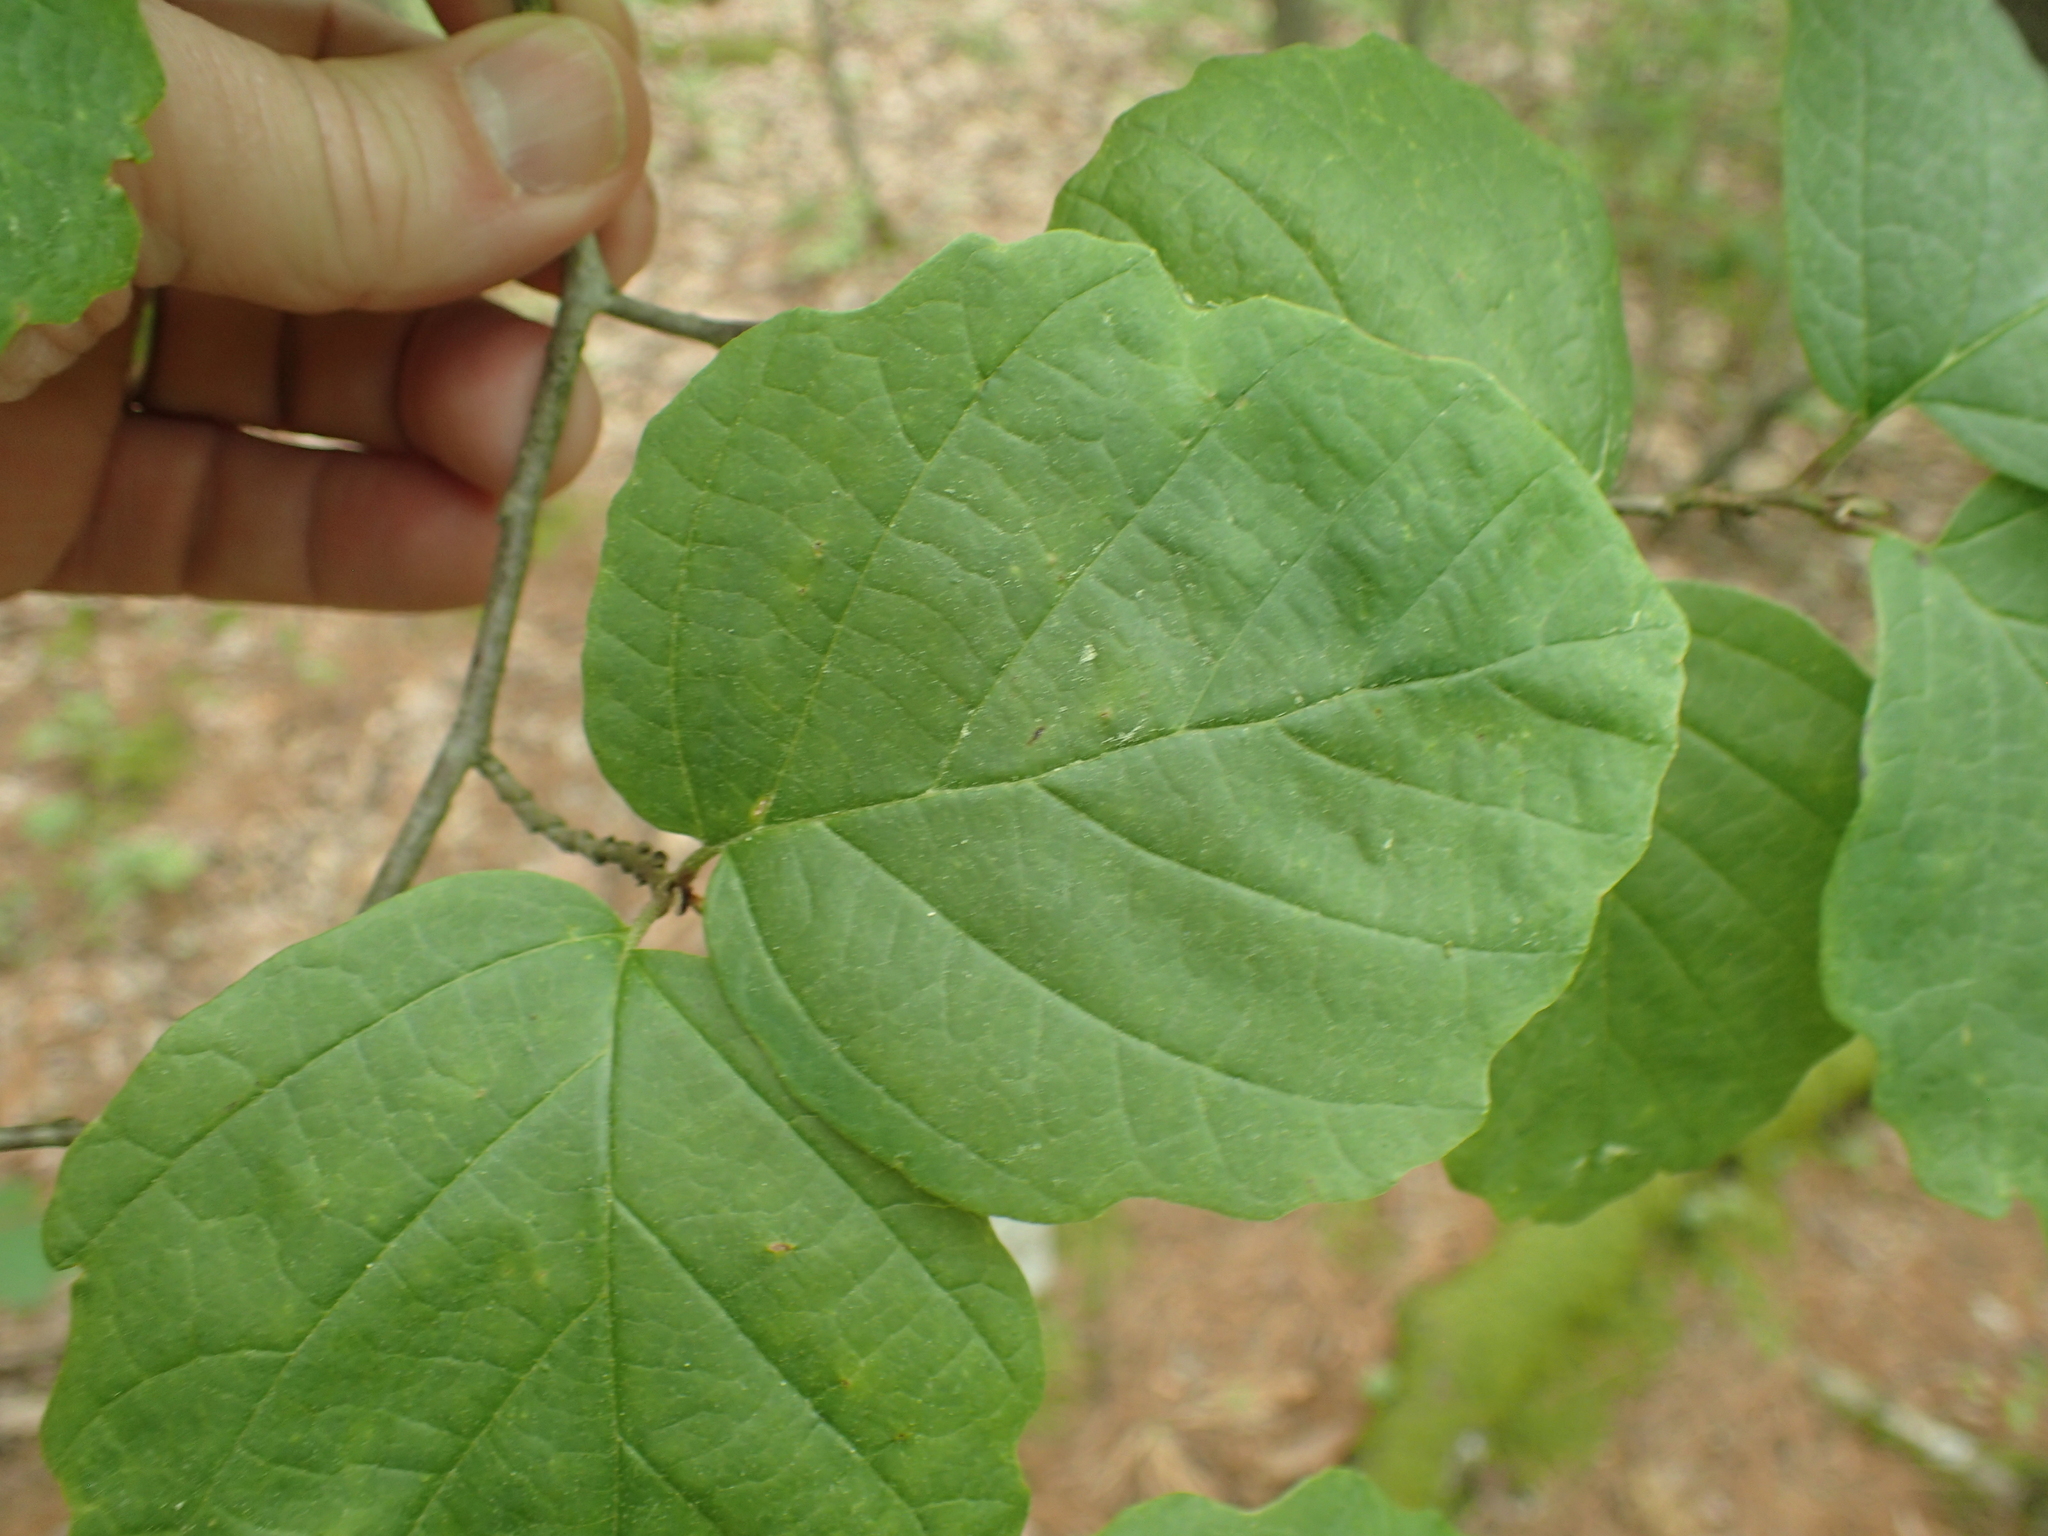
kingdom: Plantae
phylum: Tracheophyta
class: Magnoliopsida
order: Saxifragales
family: Hamamelidaceae
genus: Hamamelis
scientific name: Hamamelis virginiana
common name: Witch-hazel
